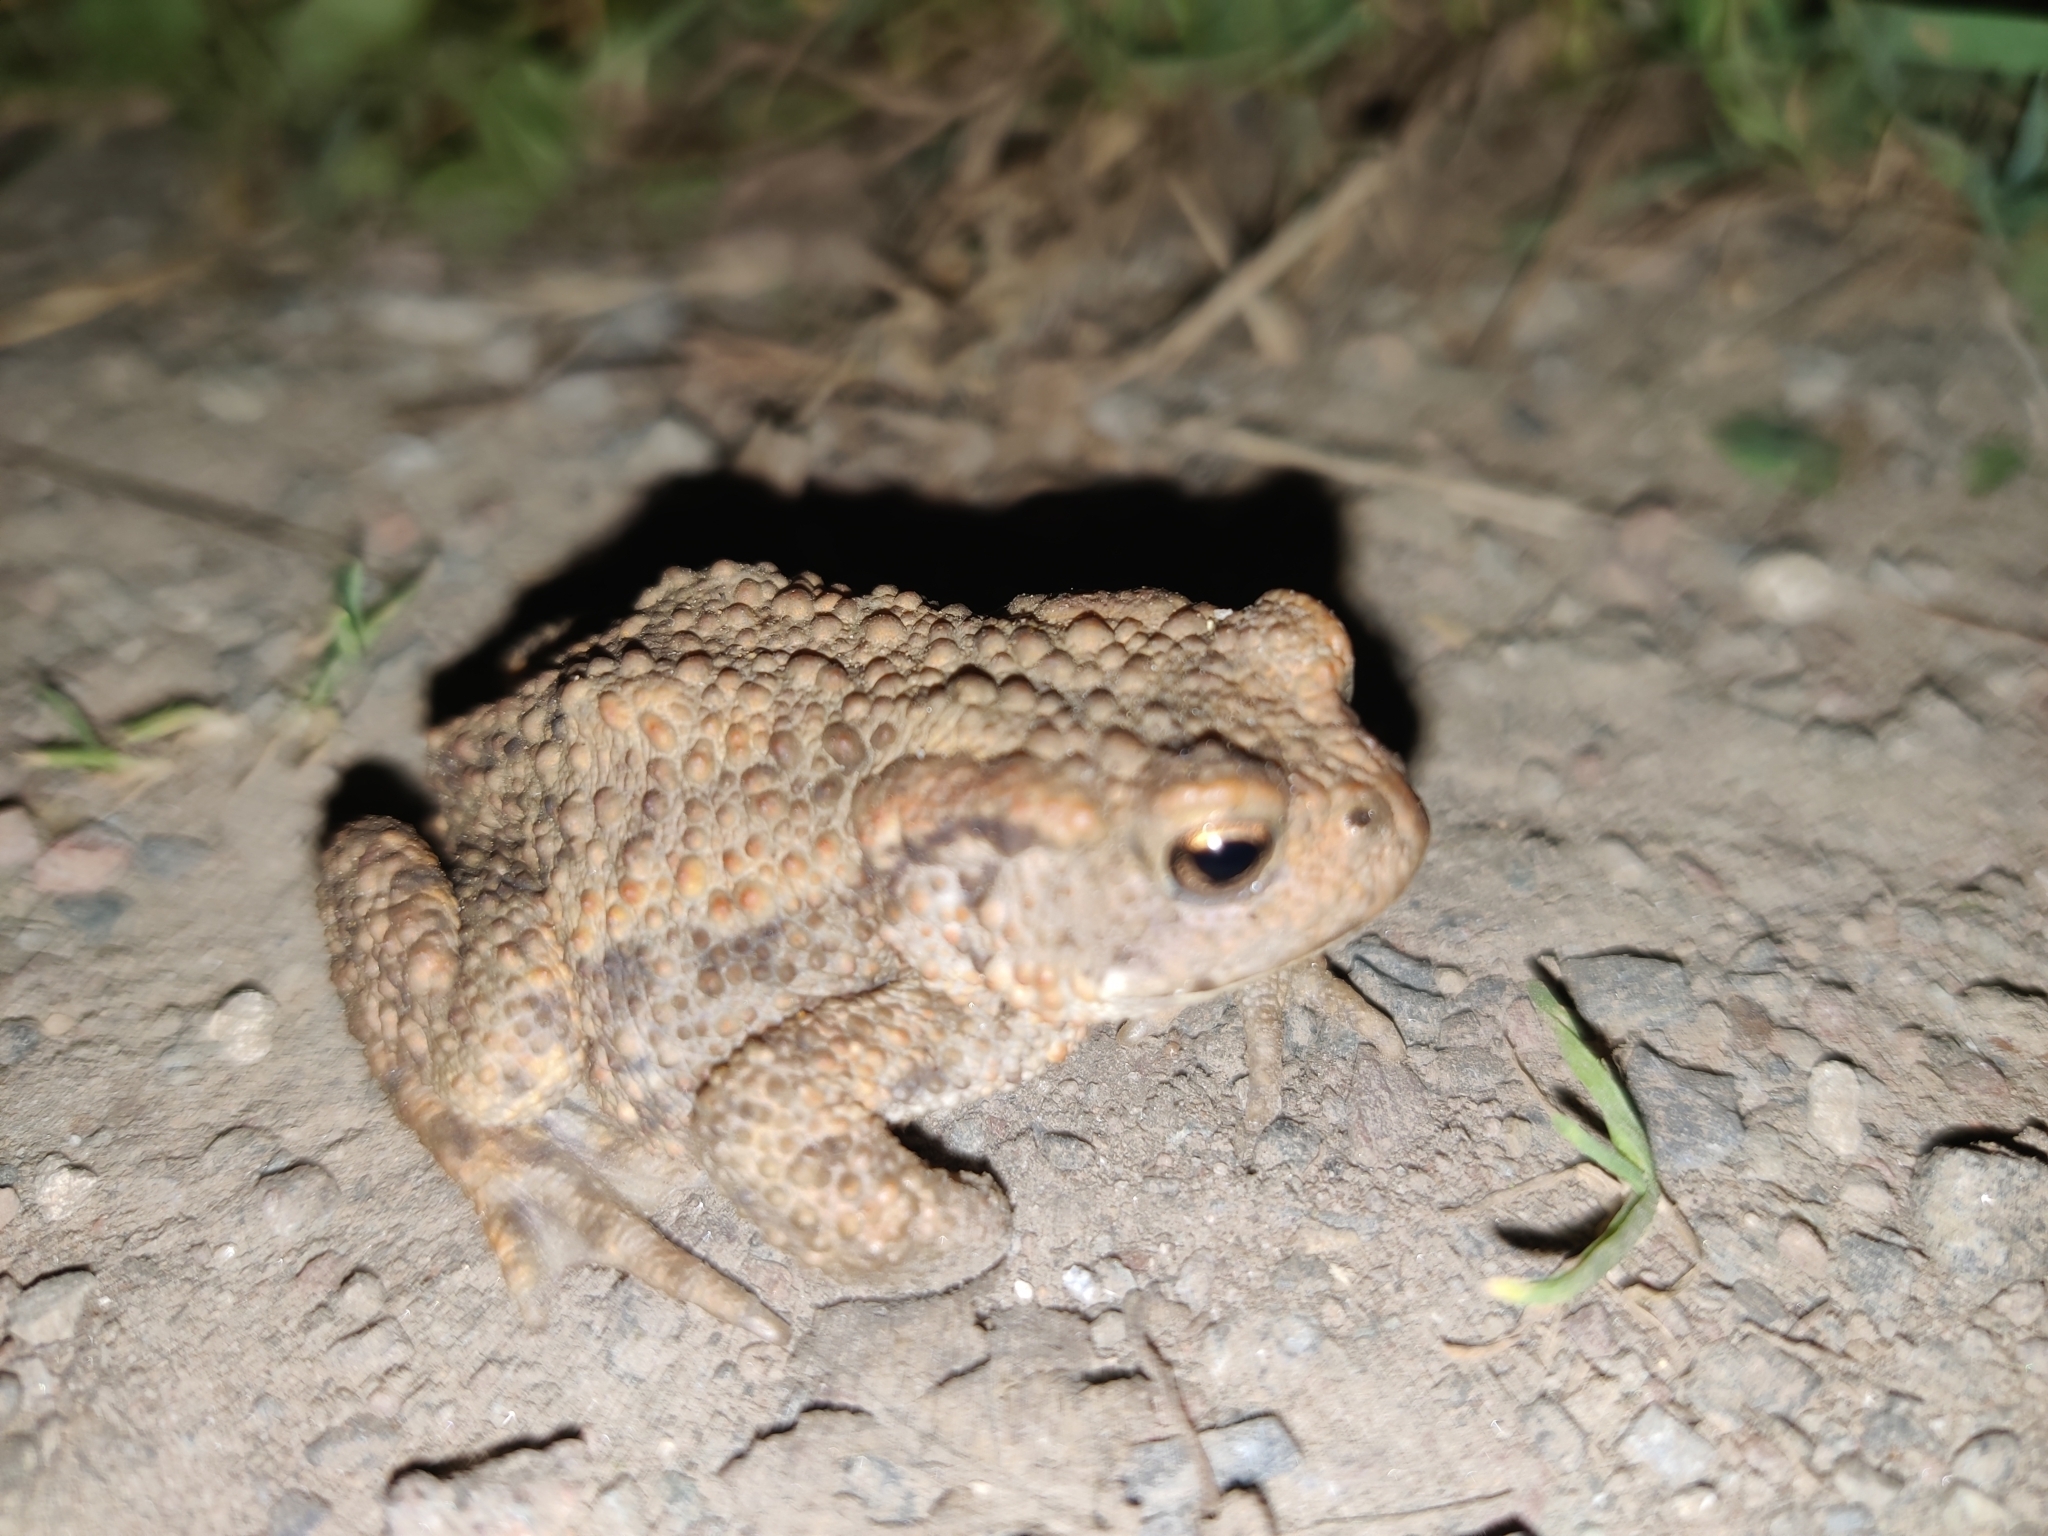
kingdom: Animalia
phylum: Chordata
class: Amphibia
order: Anura
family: Bufonidae
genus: Bufo
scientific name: Bufo bufo
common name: Common toad
